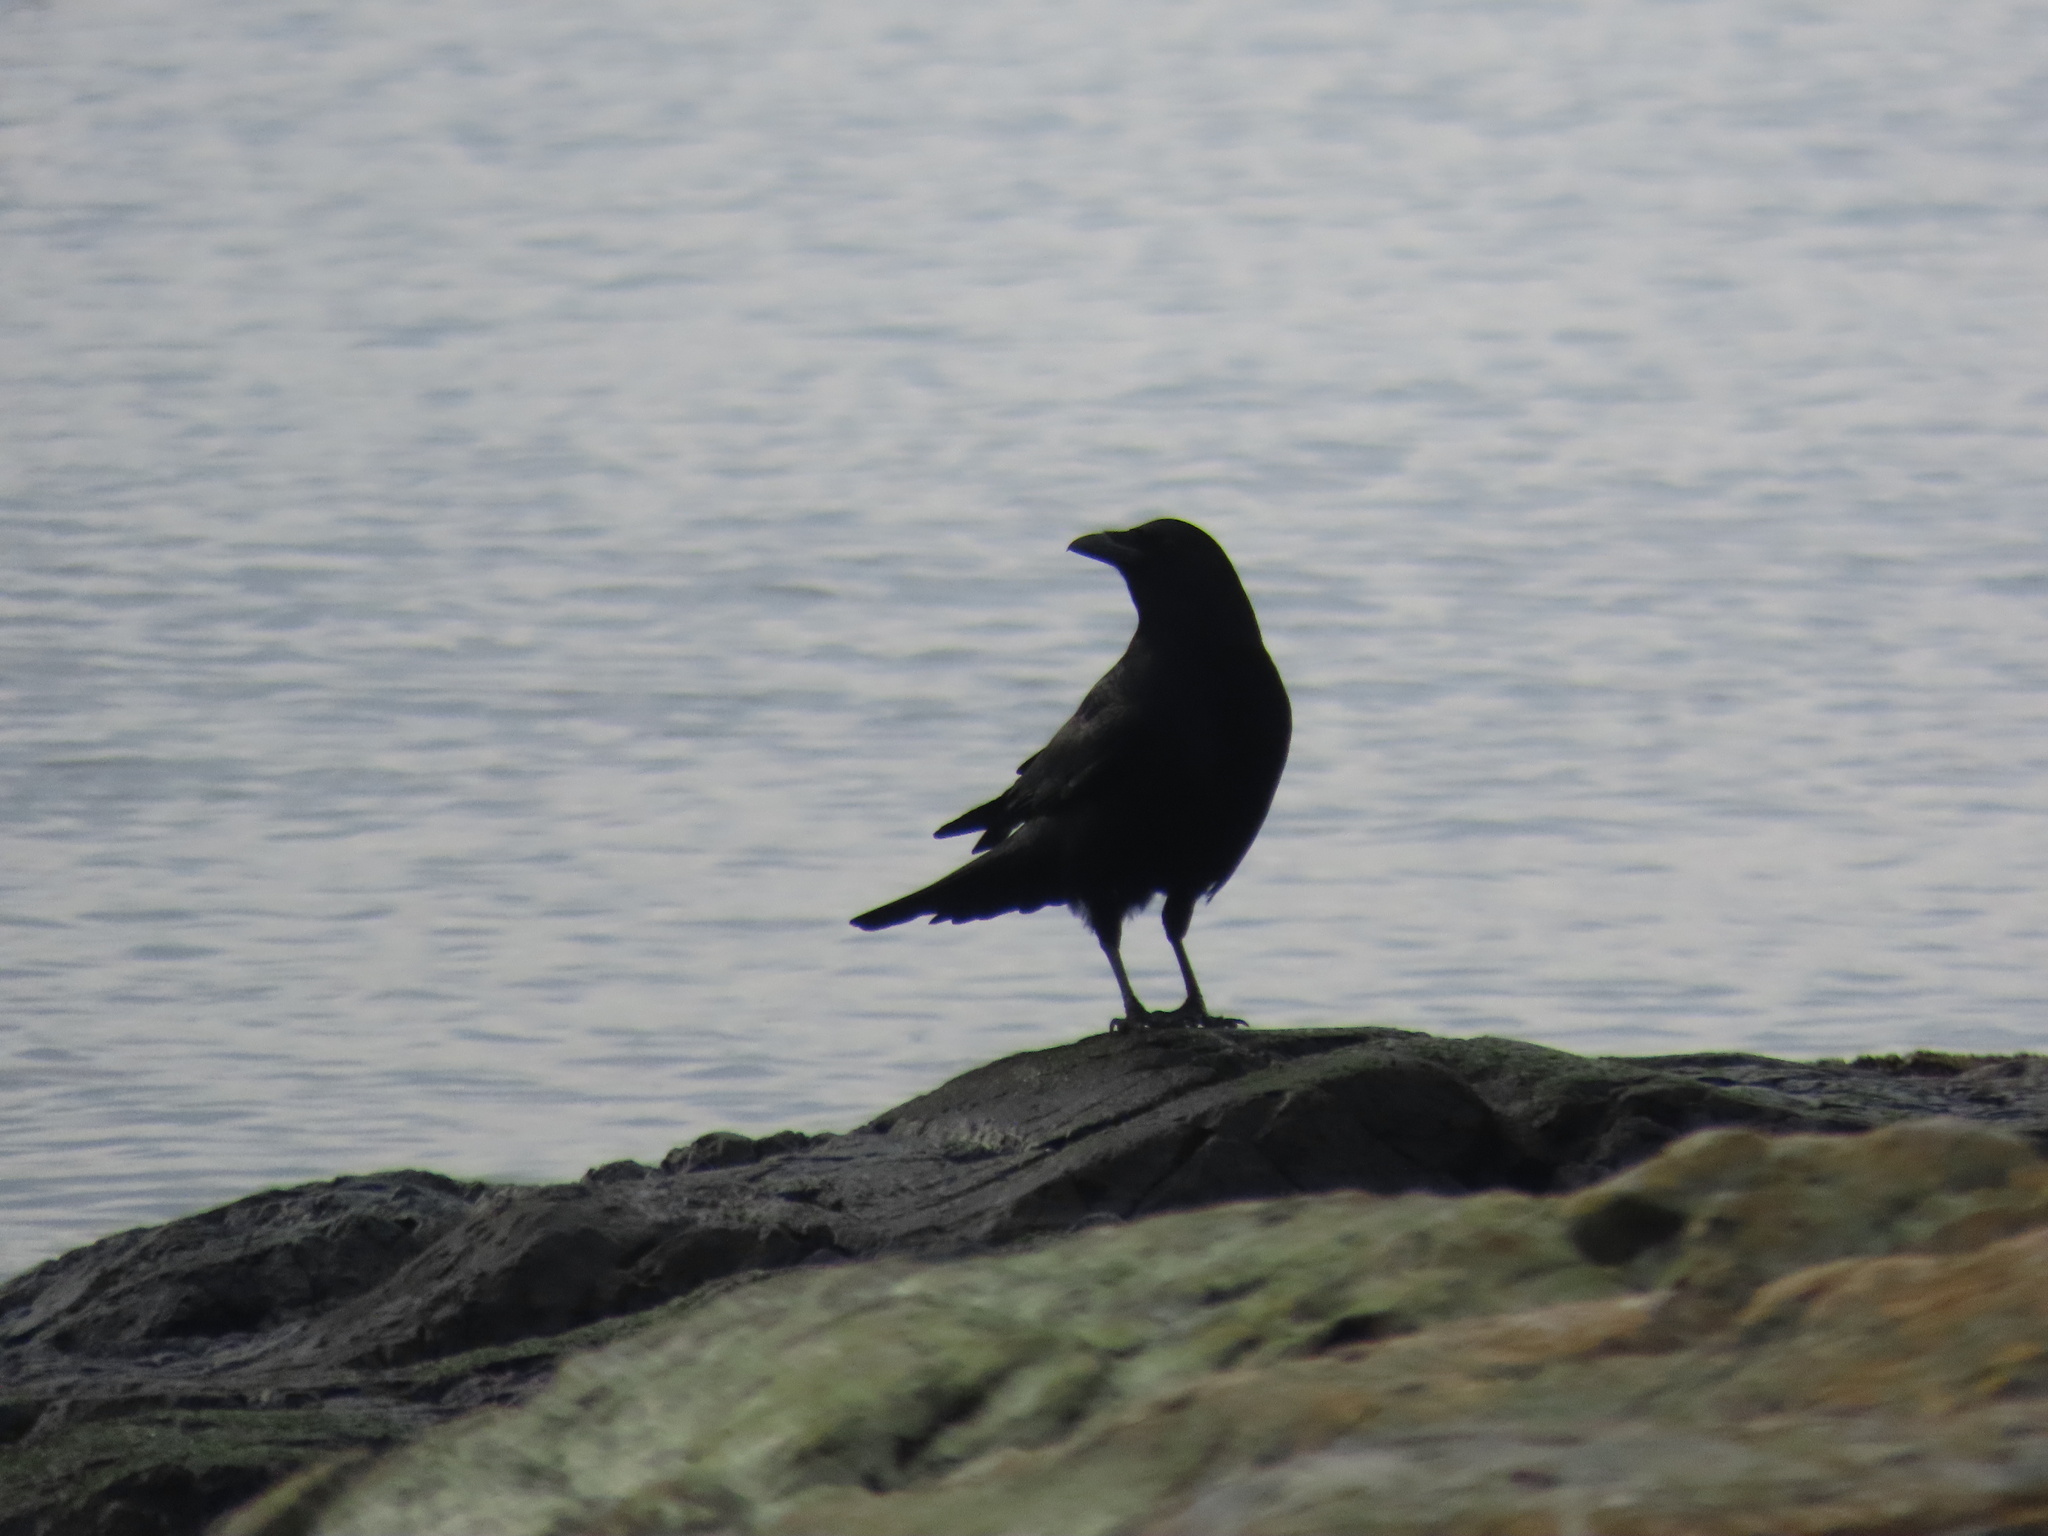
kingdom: Animalia
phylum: Chordata
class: Aves
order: Passeriformes
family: Corvidae
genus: Corvus
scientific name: Corvus brachyrhynchos
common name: American crow
